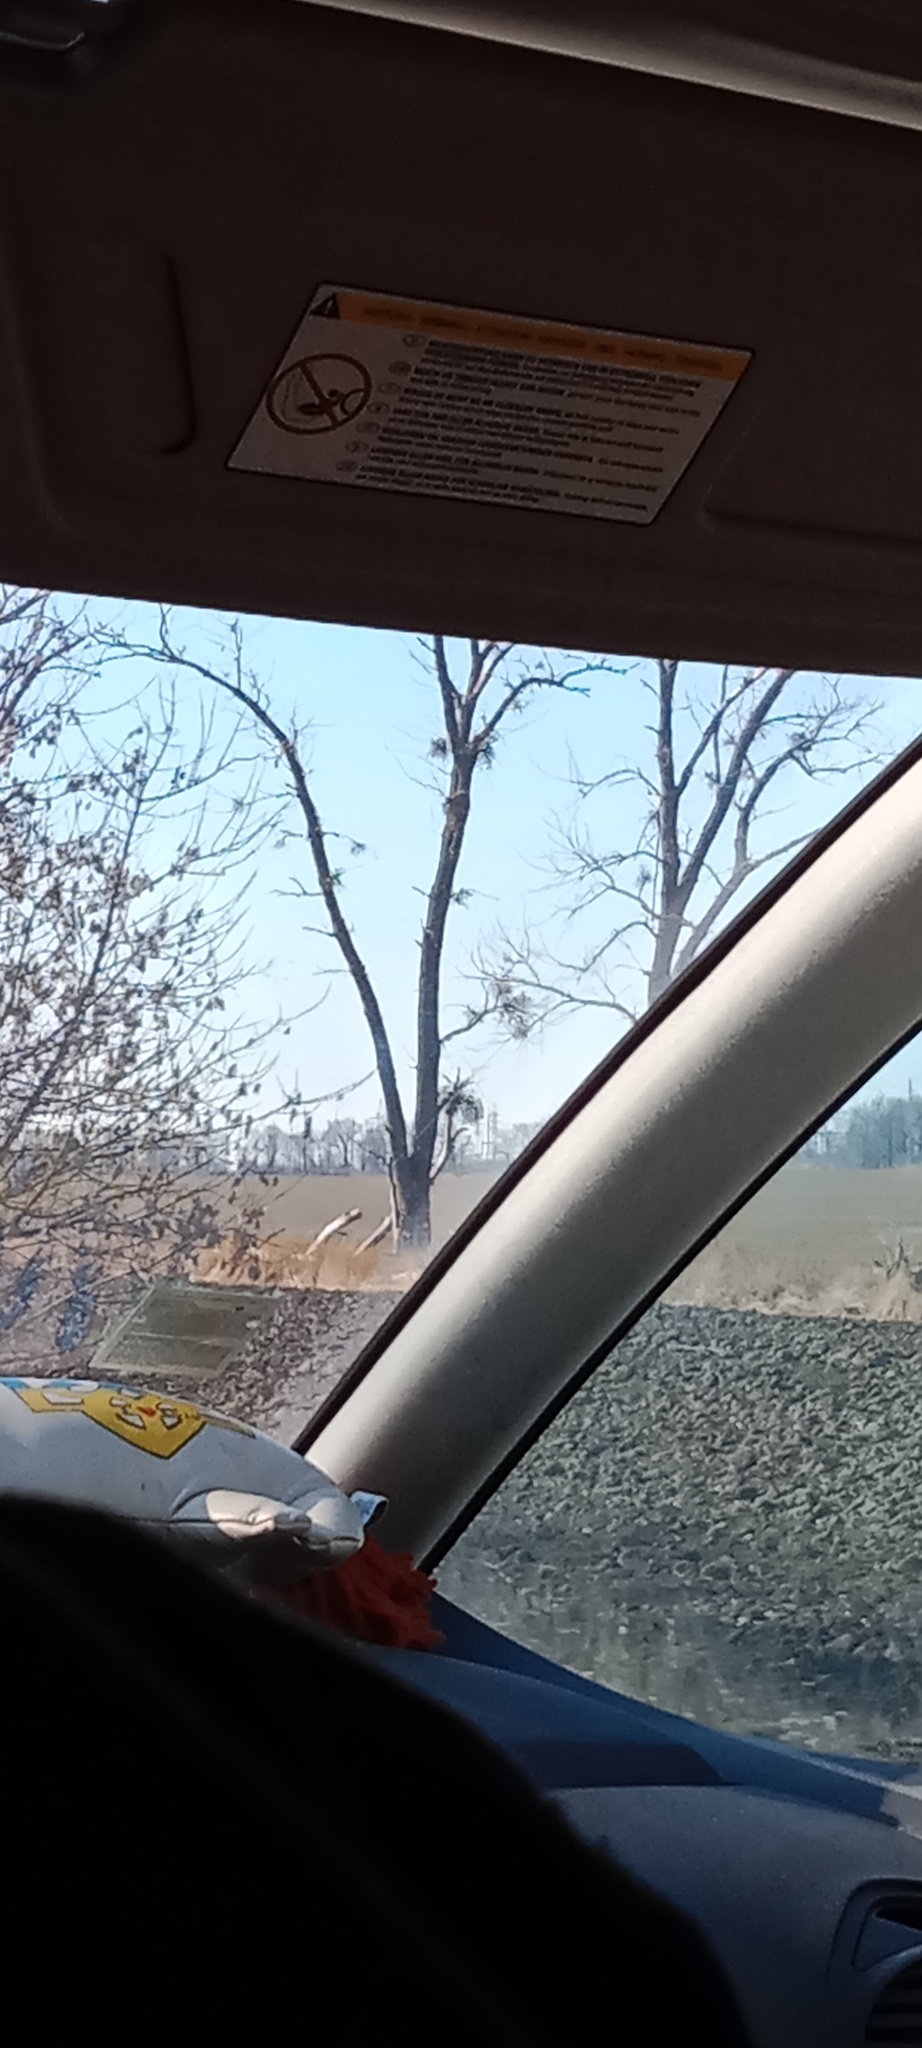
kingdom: Plantae
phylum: Tracheophyta
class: Magnoliopsida
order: Santalales
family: Viscaceae
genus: Viscum
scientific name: Viscum album
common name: Mistletoe
